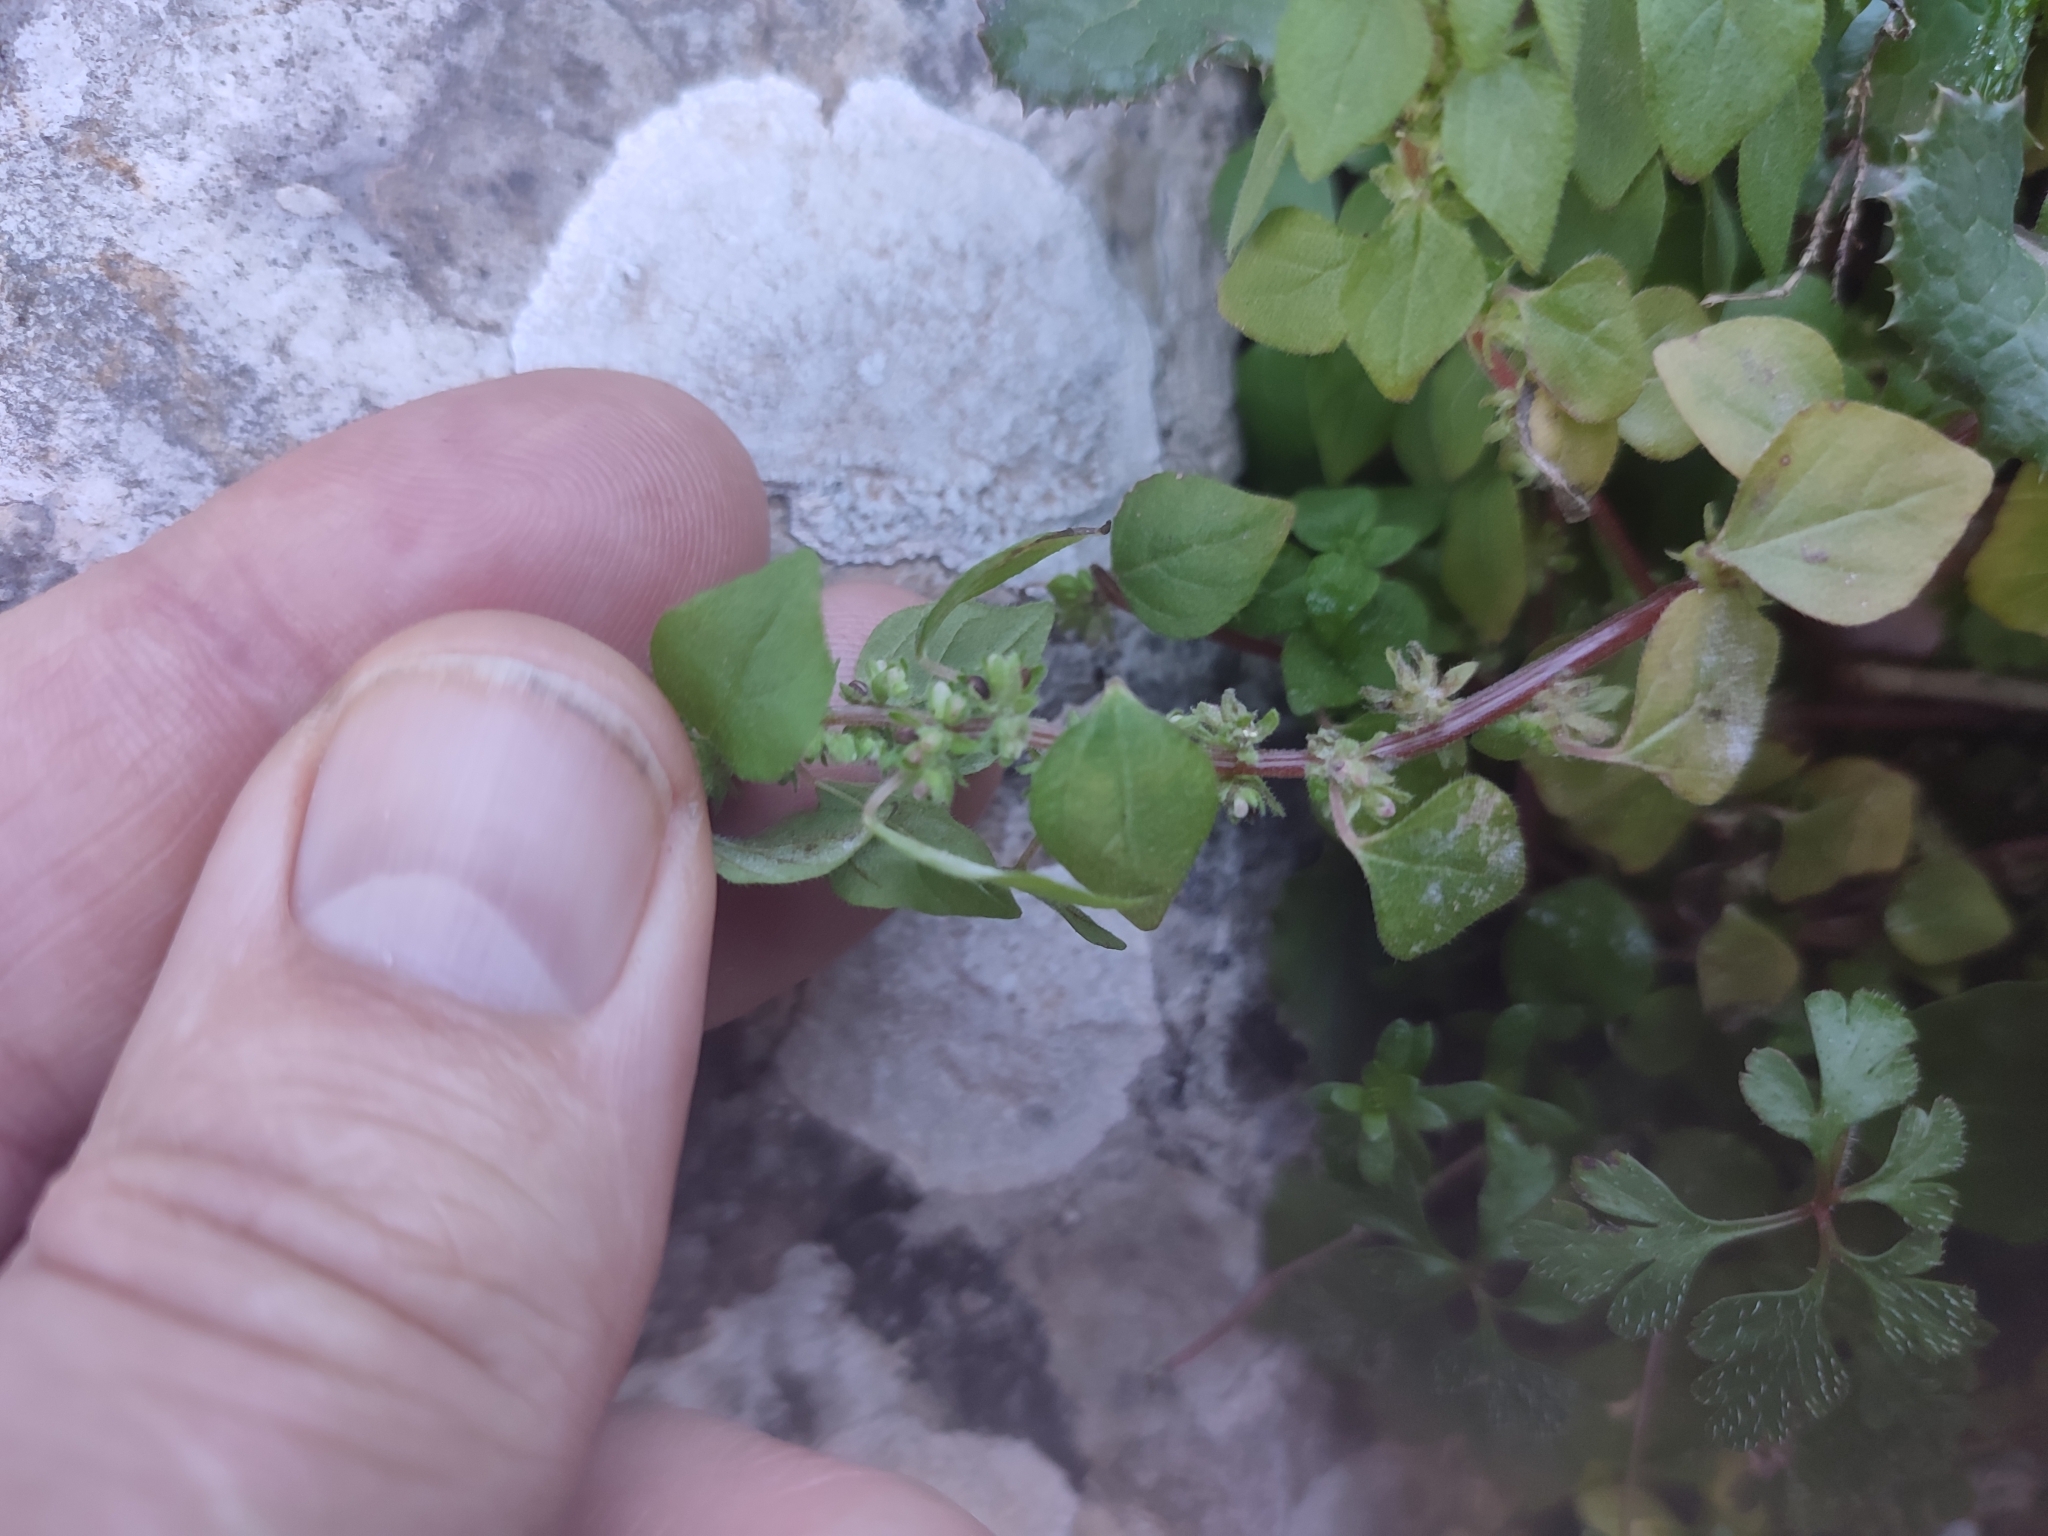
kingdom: Plantae
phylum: Tracheophyta
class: Magnoliopsida
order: Rosales
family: Urticaceae
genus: Parietaria
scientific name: Parietaria lusitanica
